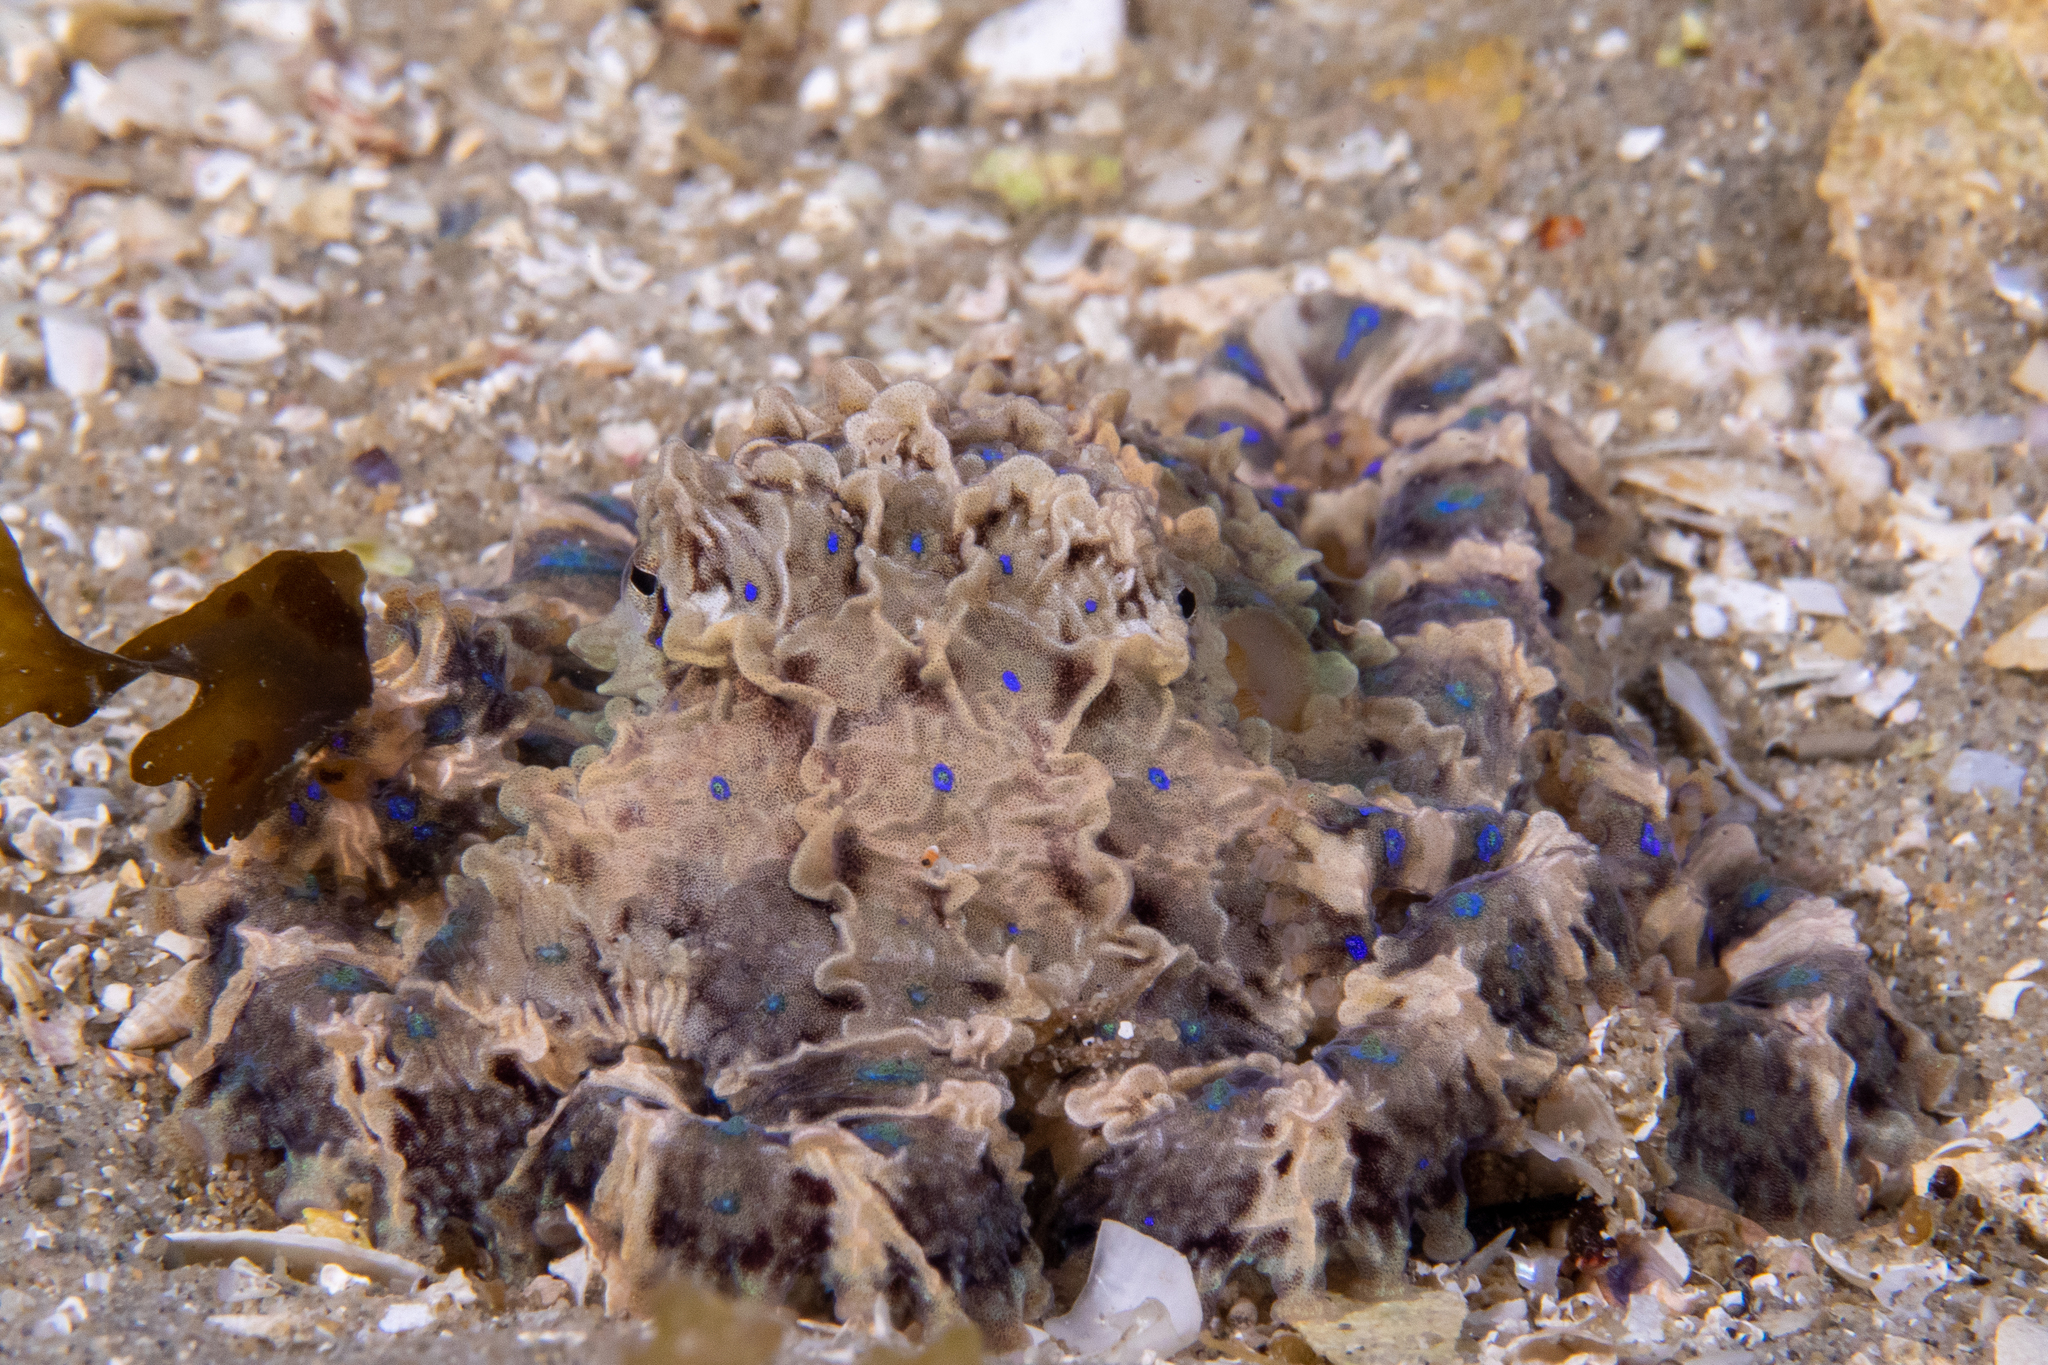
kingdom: Animalia
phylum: Mollusca
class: Cephalopoda
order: Octopoda
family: Octopodidae
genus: Hapalochlaena
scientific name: Hapalochlaena maculosa
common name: Blue-ringed octopus
